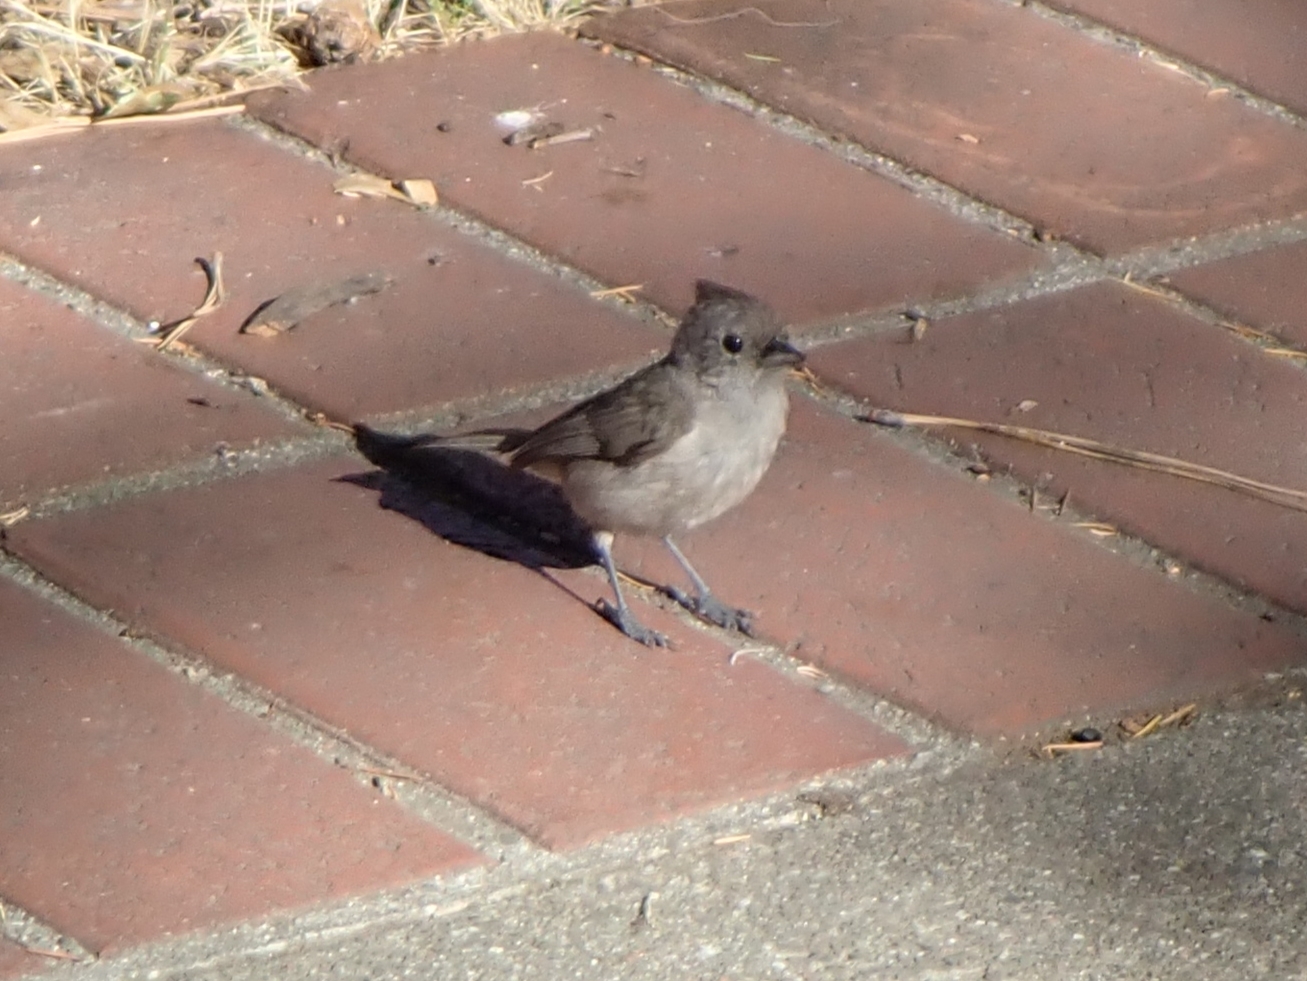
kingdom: Animalia
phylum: Chordata
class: Aves
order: Passeriformes
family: Paridae
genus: Baeolophus
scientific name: Baeolophus inornatus
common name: Oak titmouse
